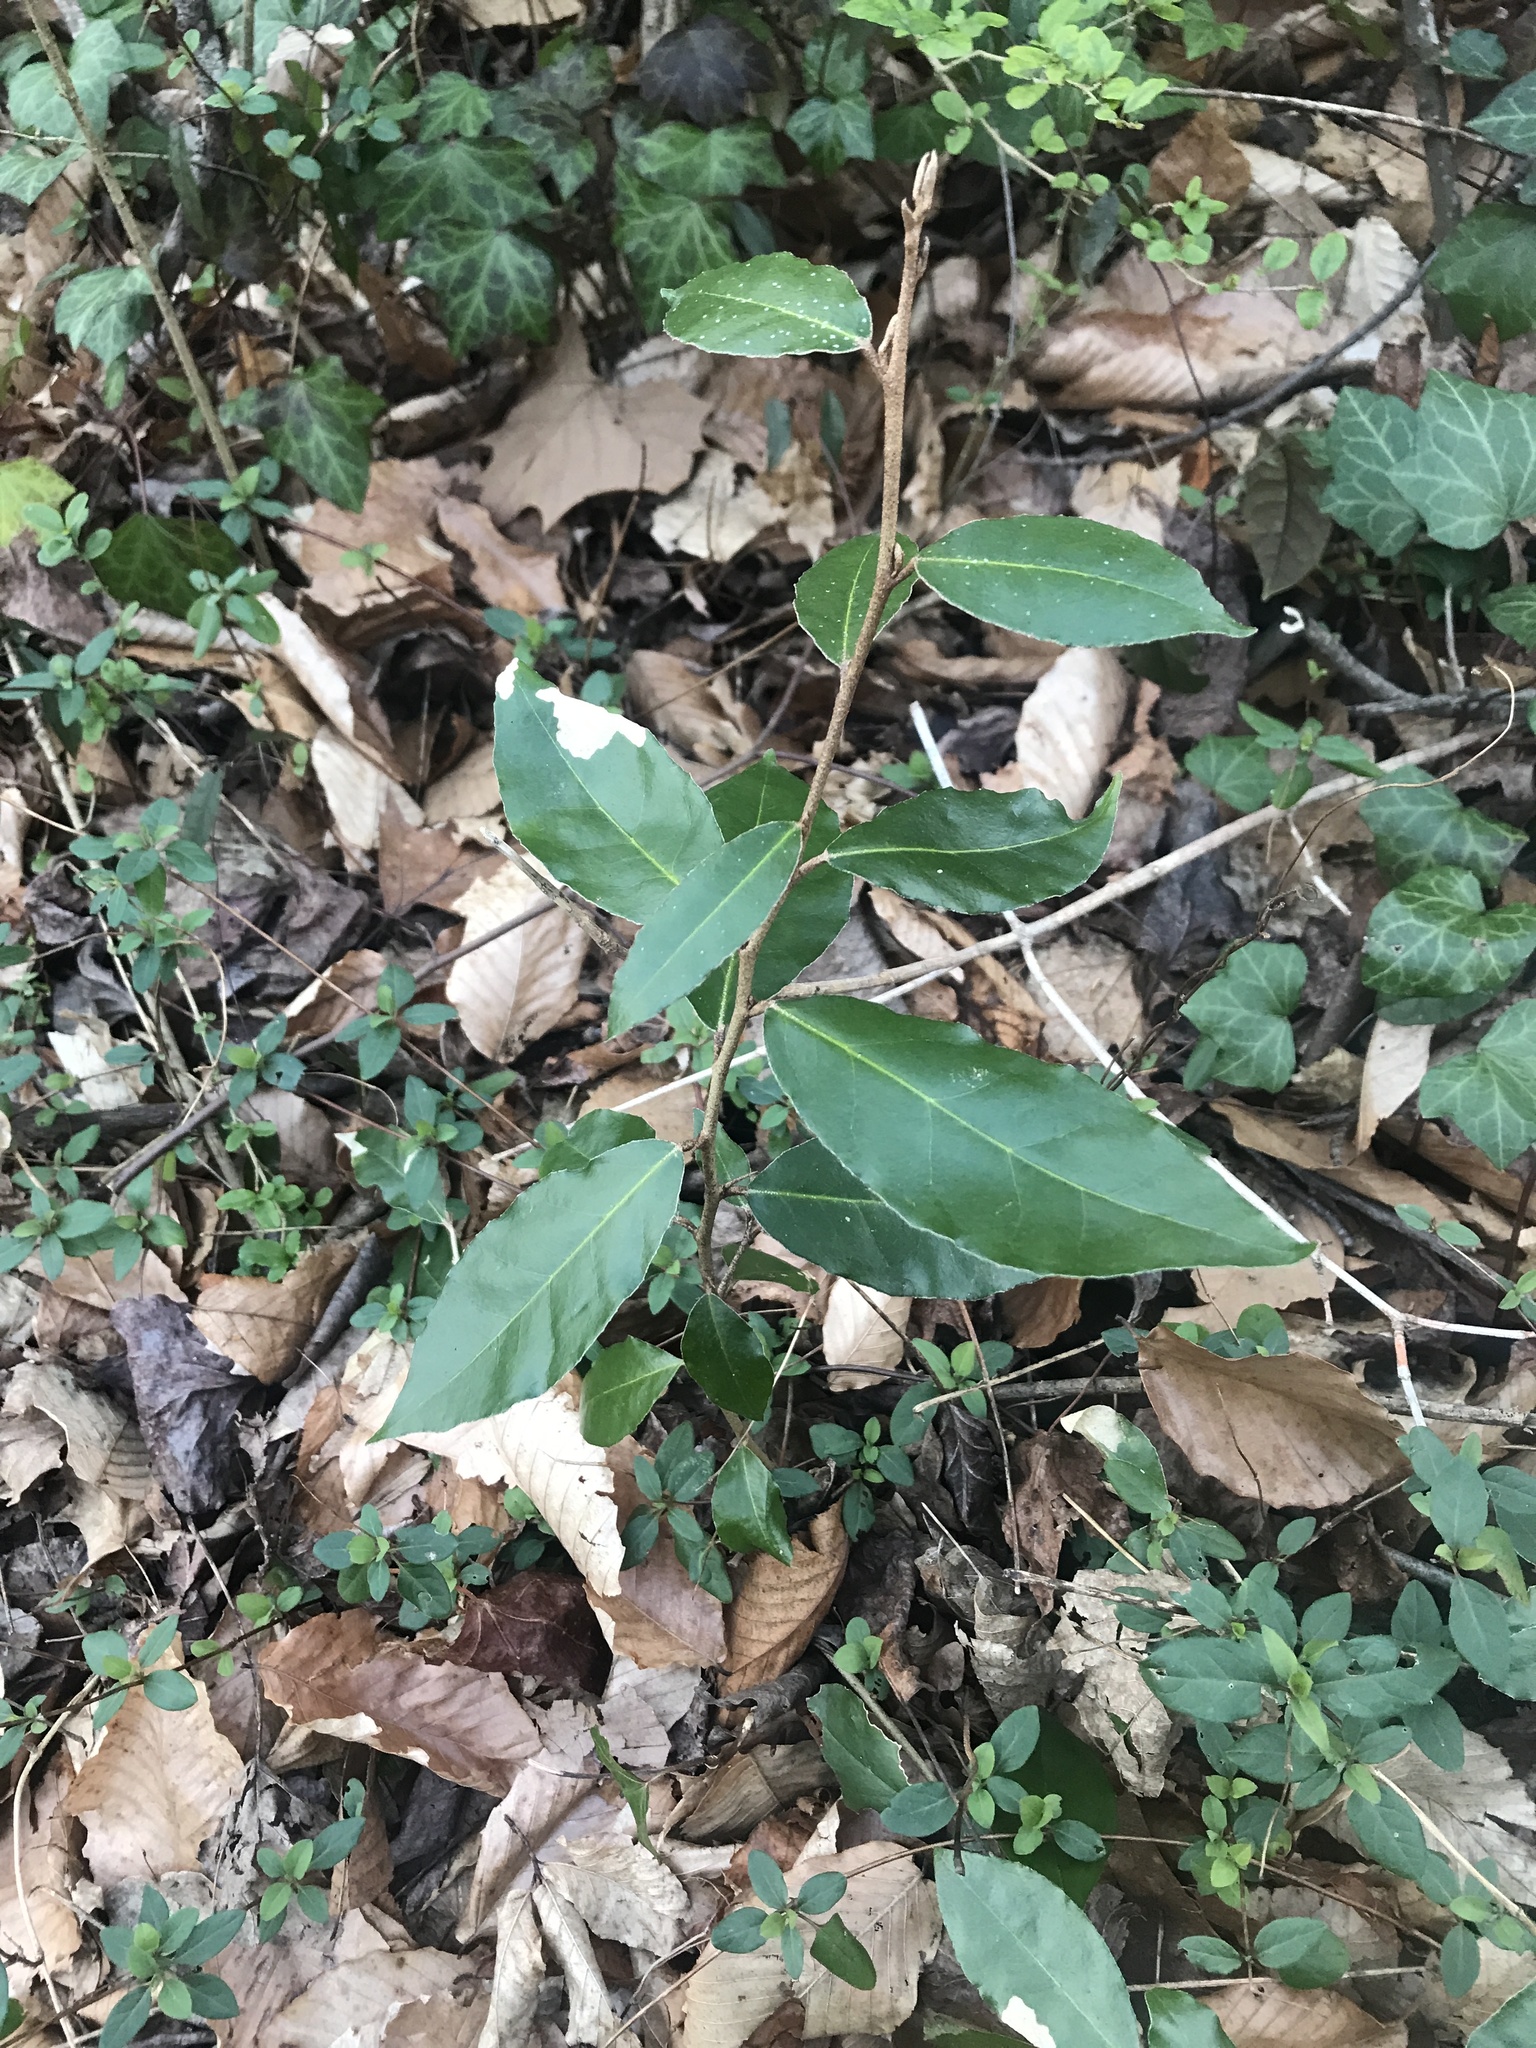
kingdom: Plantae
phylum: Tracheophyta
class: Magnoliopsida
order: Rosales
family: Elaeagnaceae
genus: Elaeagnus
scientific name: Elaeagnus pungens
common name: Spiny oleaster
